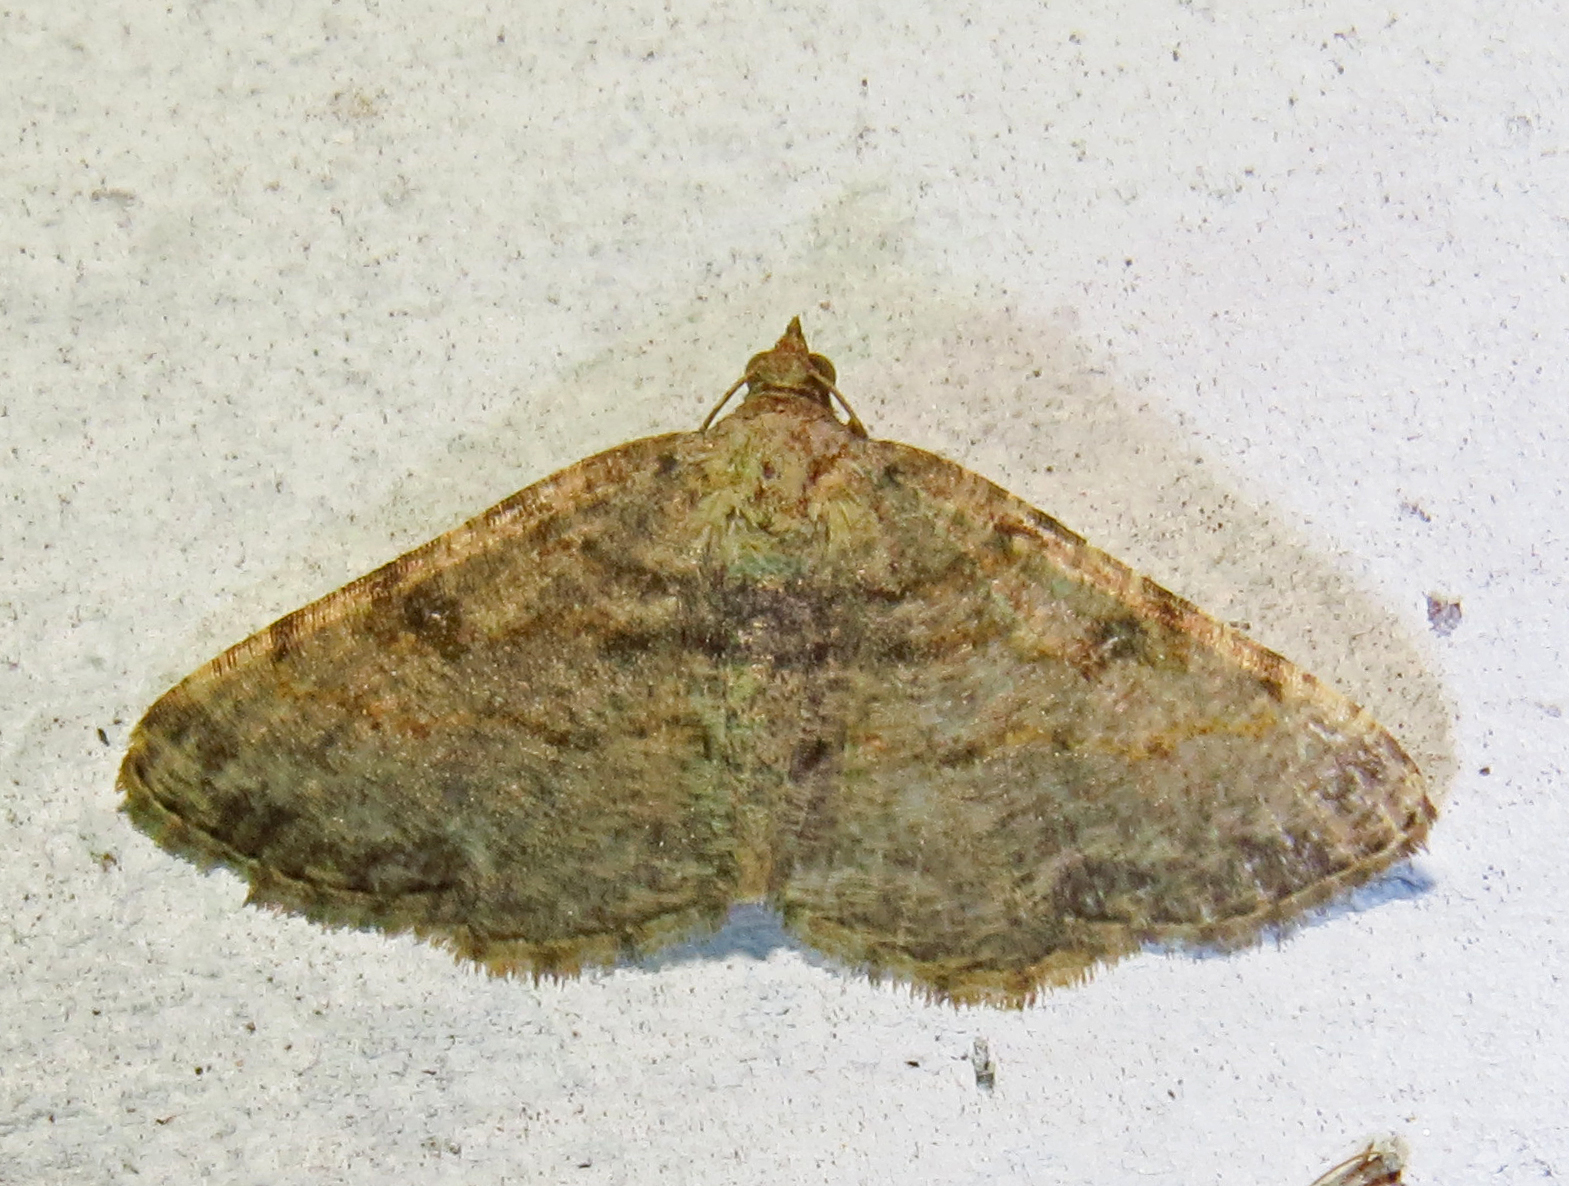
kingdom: Animalia
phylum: Arthropoda
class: Insecta
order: Lepidoptera
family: Geometridae
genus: Digrammia
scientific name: Digrammia gnophosaria
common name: Hollow-spotted angle
